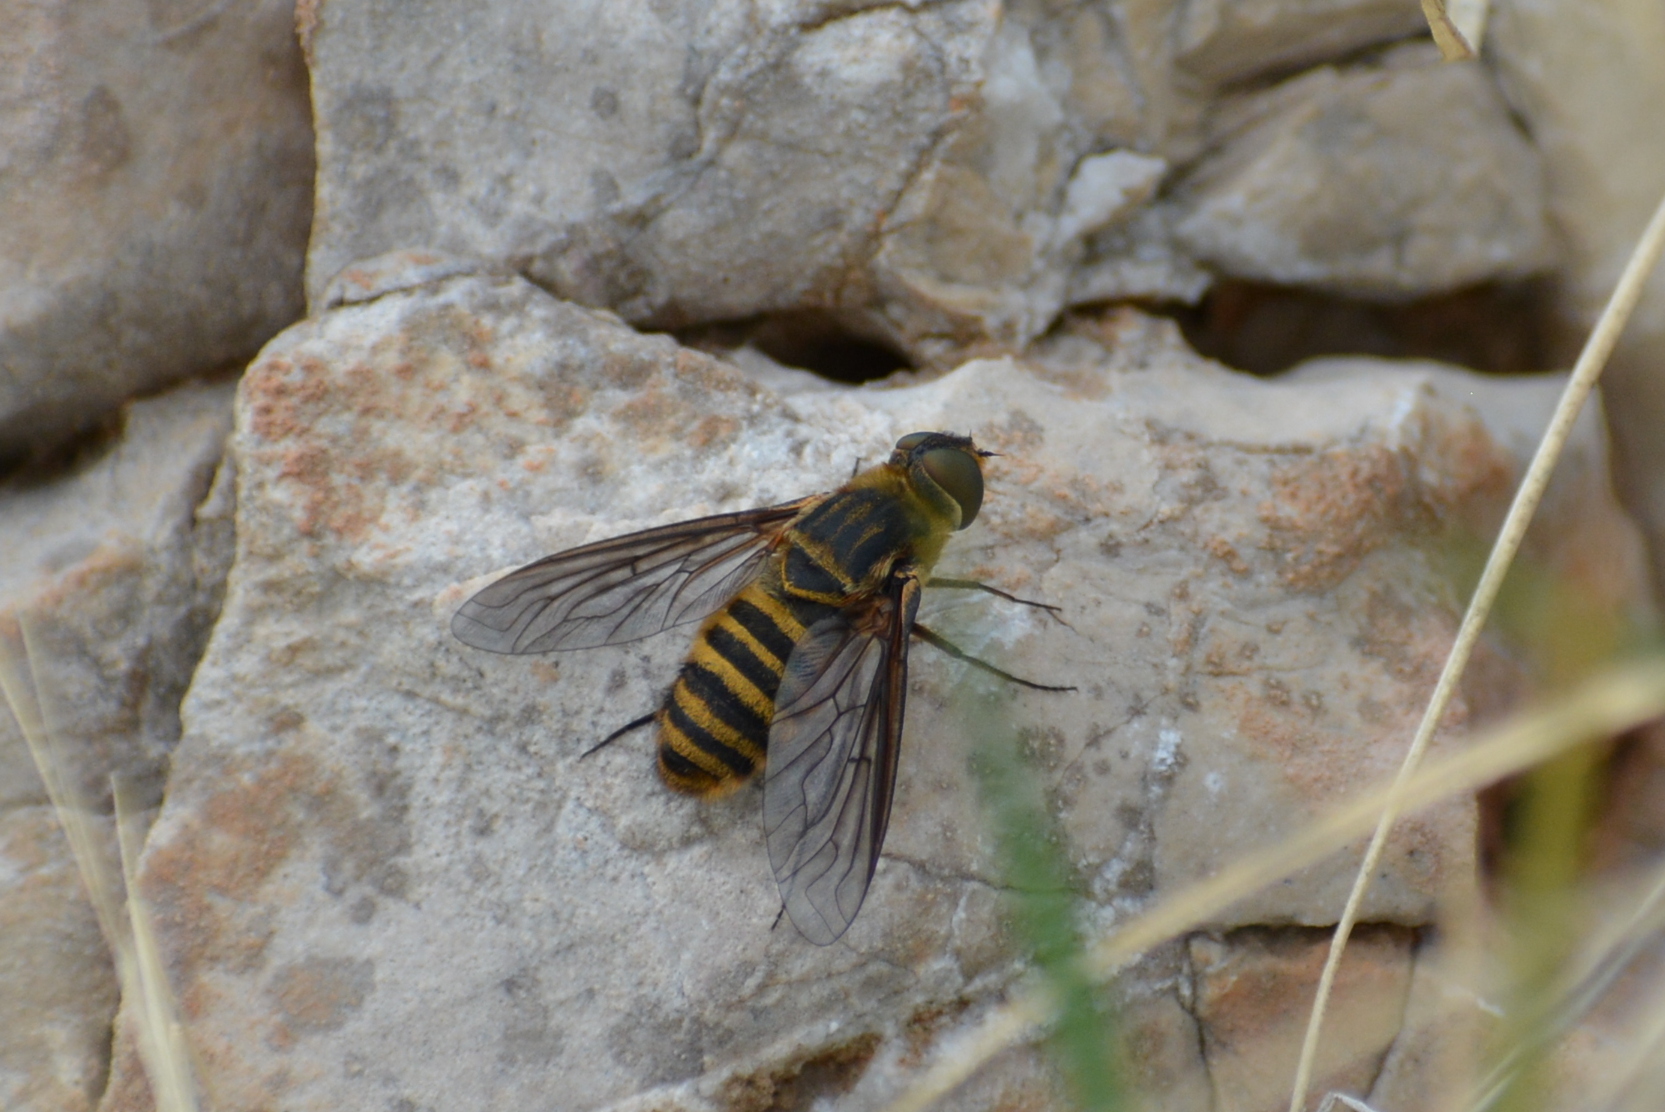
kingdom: Animalia
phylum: Arthropoda
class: Insecta
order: Diptera
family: Bombyliidae
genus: Villa
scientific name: Villa brunnea
